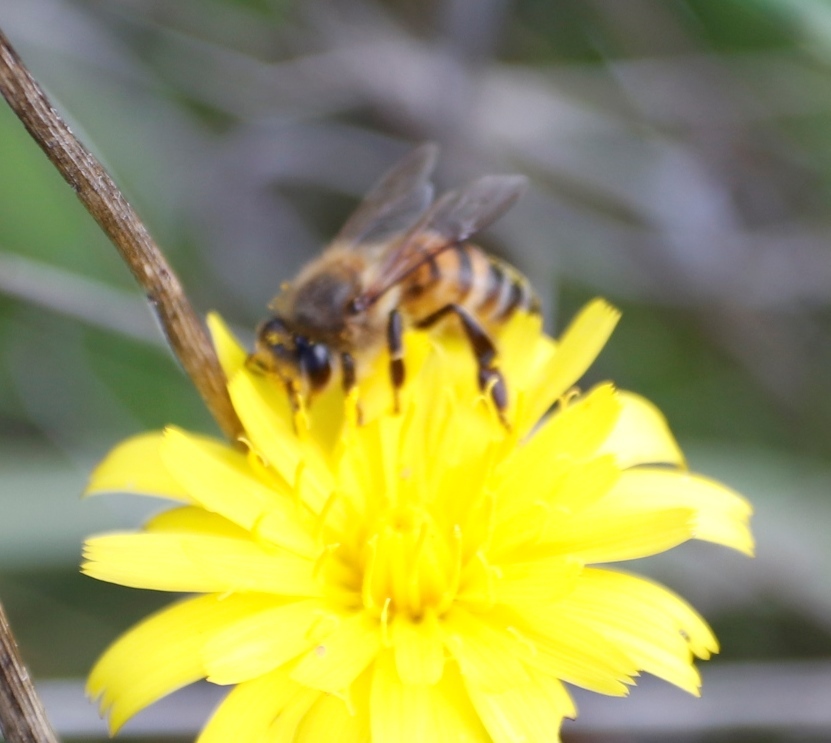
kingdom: Animalia
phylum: Arthropoda
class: Insecta
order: Hymenoptera
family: Apidae
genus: Apis
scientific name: Apis mellifera
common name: Honey bee
